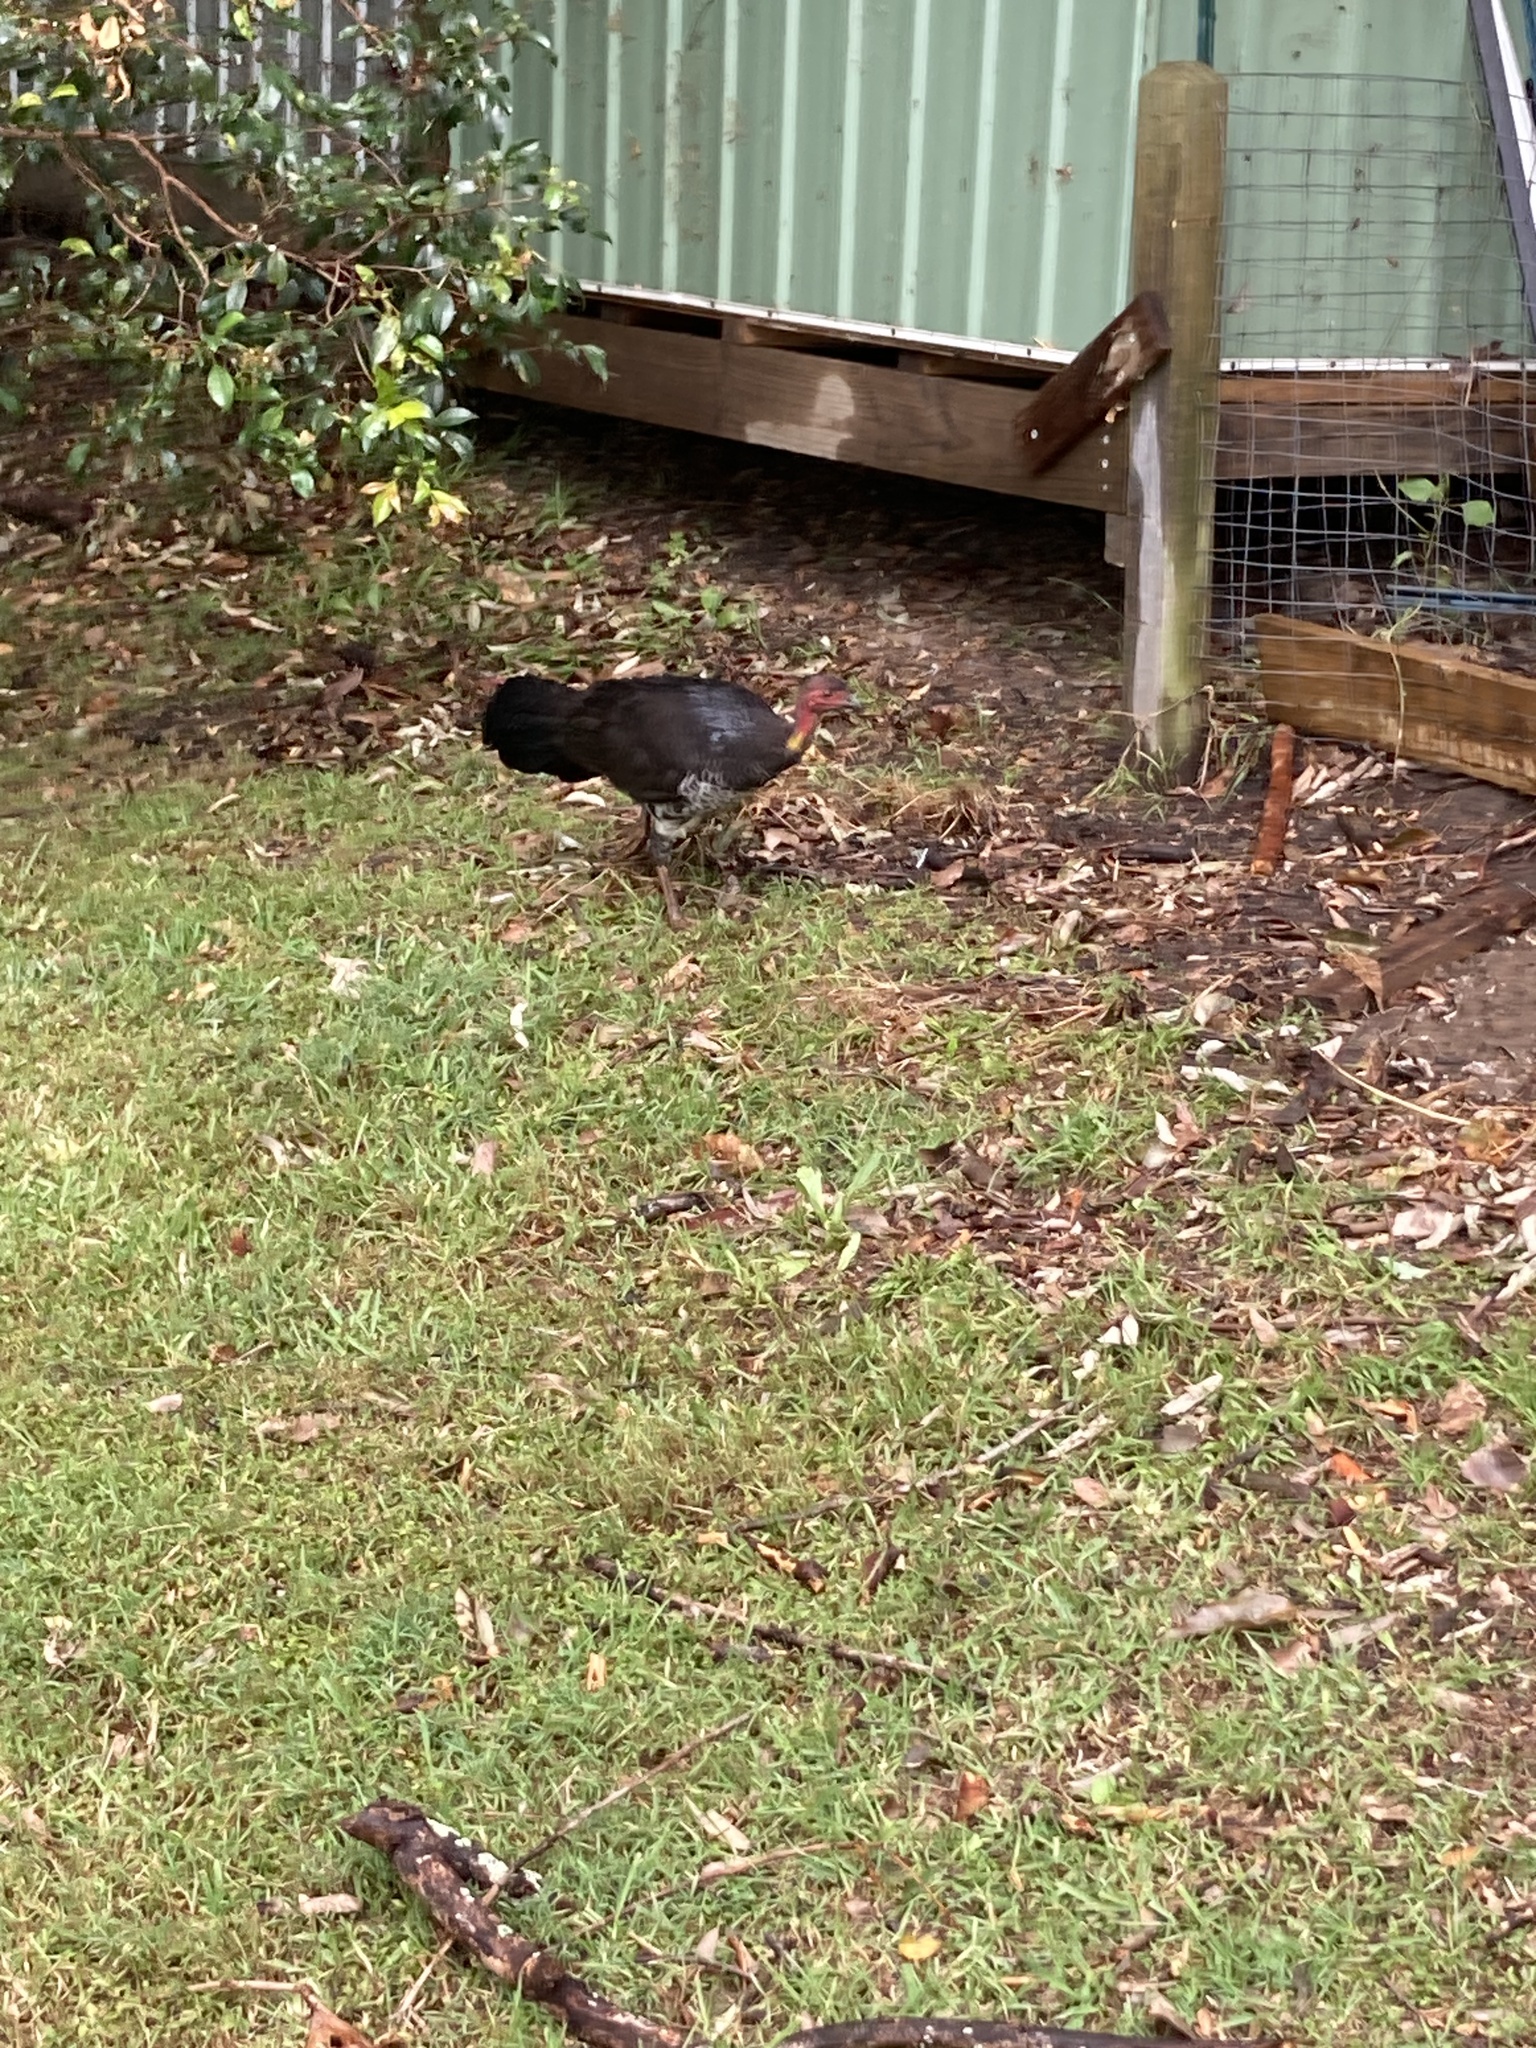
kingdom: Animalia
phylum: Chordata
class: Aves
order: Galliformes
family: Megapodiidae
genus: Alectura
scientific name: Alectura lathami
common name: Australian brushturkey
